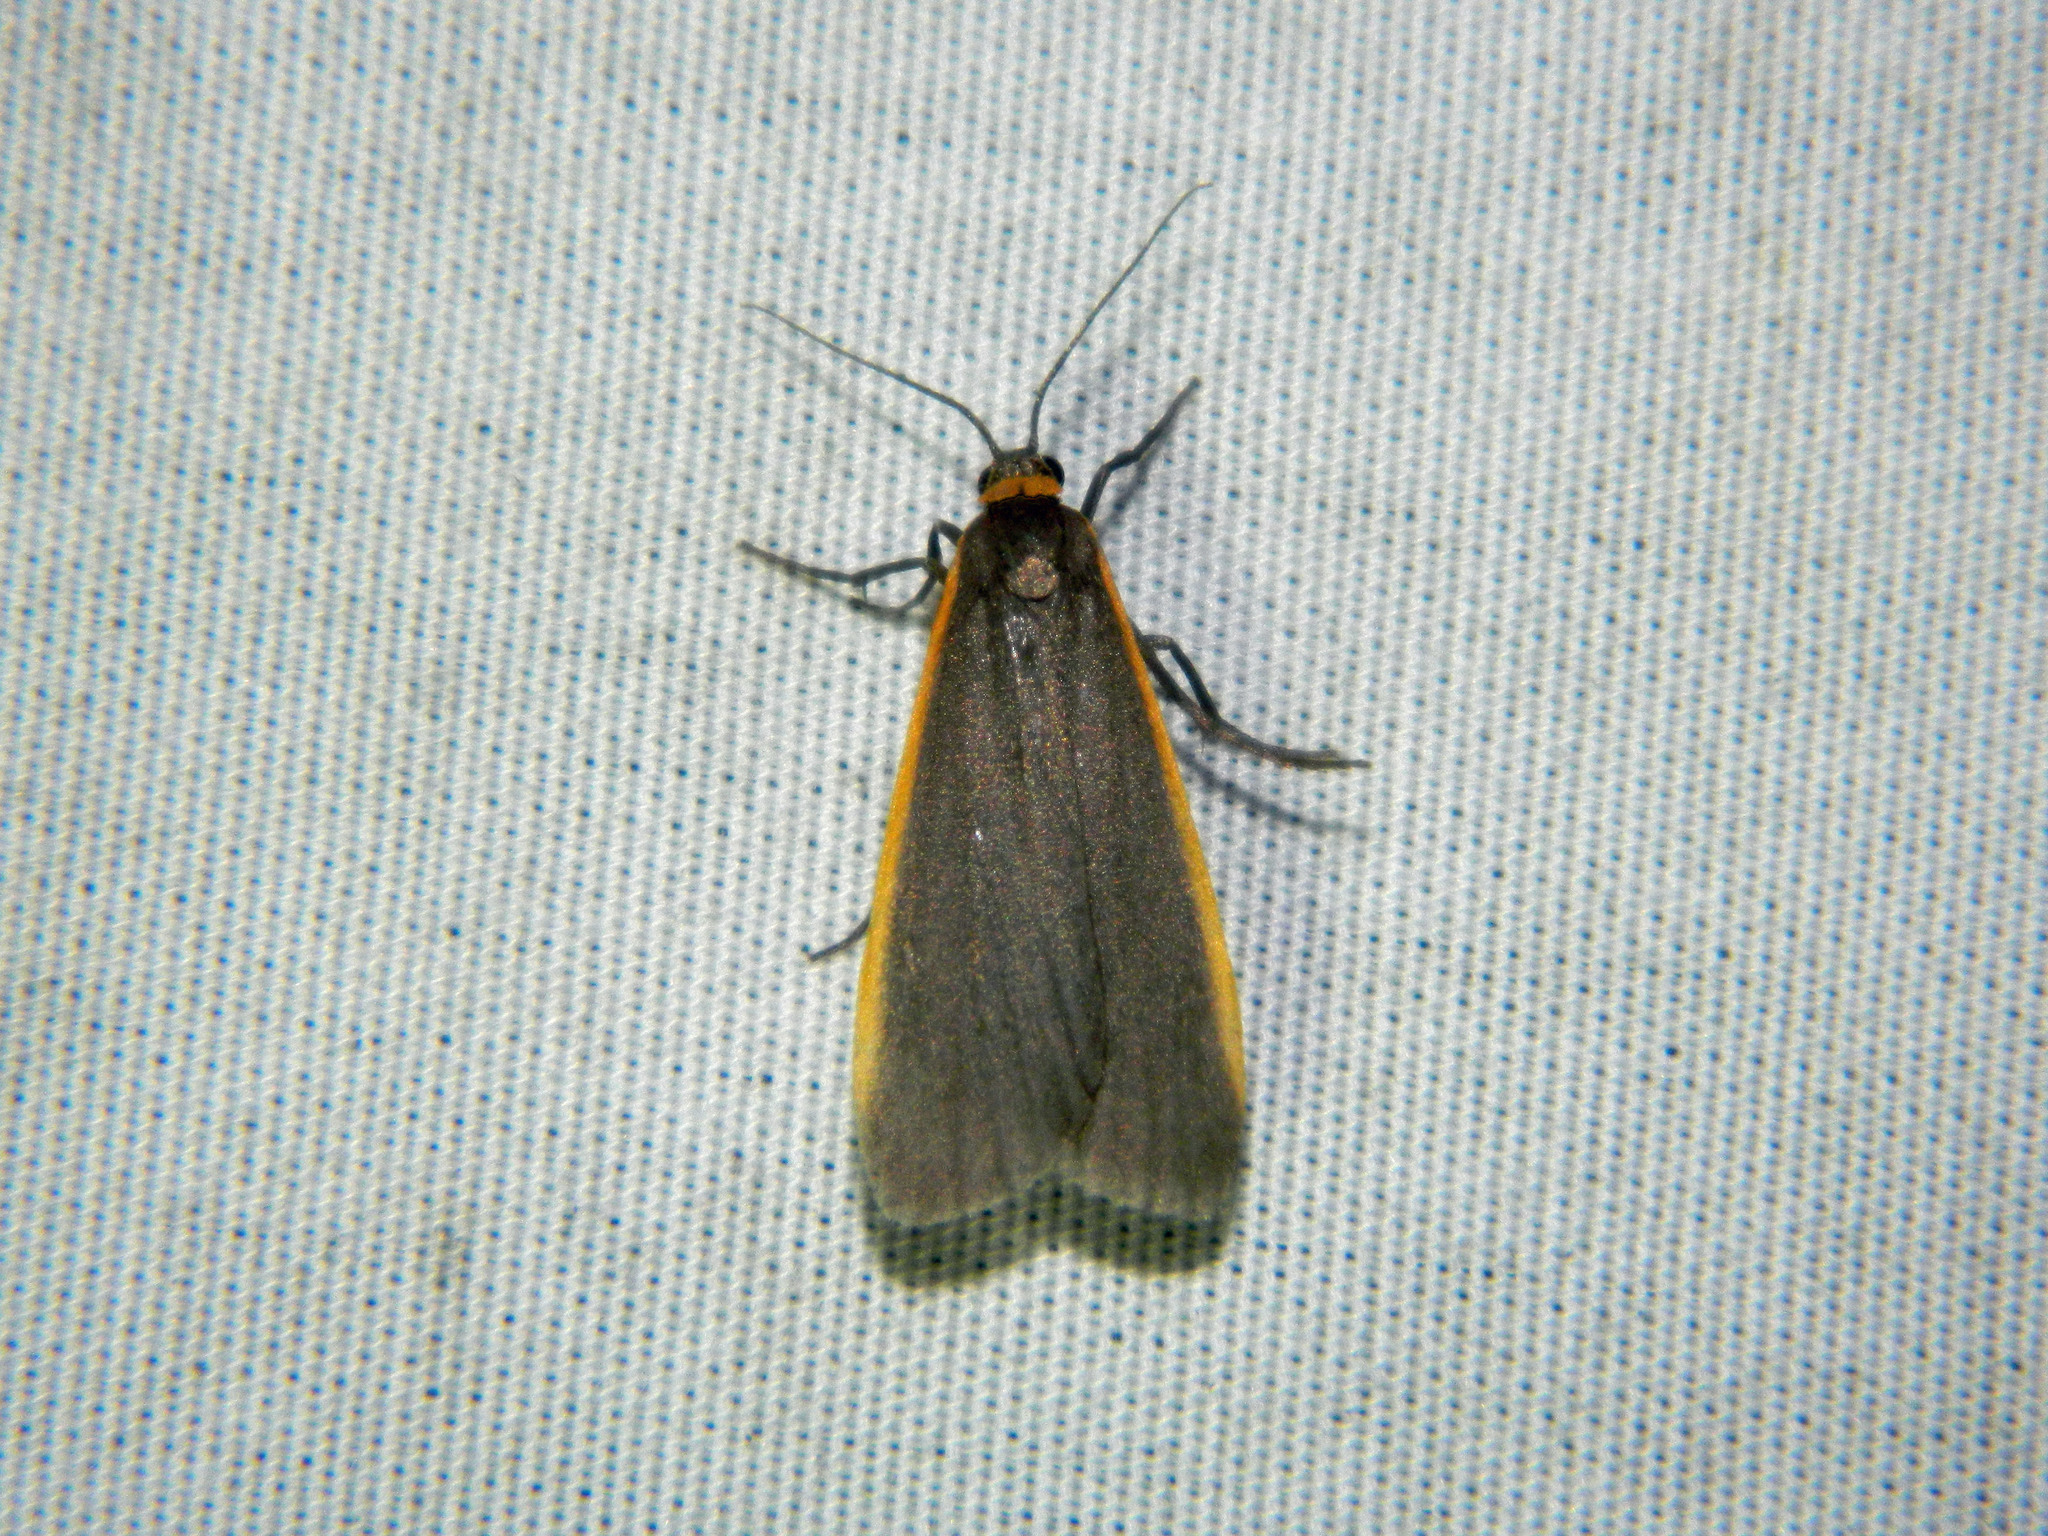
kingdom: Animalia
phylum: Arthropoda
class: Insecta
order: Lepidoptera
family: Erebidae
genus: Manulea
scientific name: Manulea bicolor
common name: Bicolored moth
